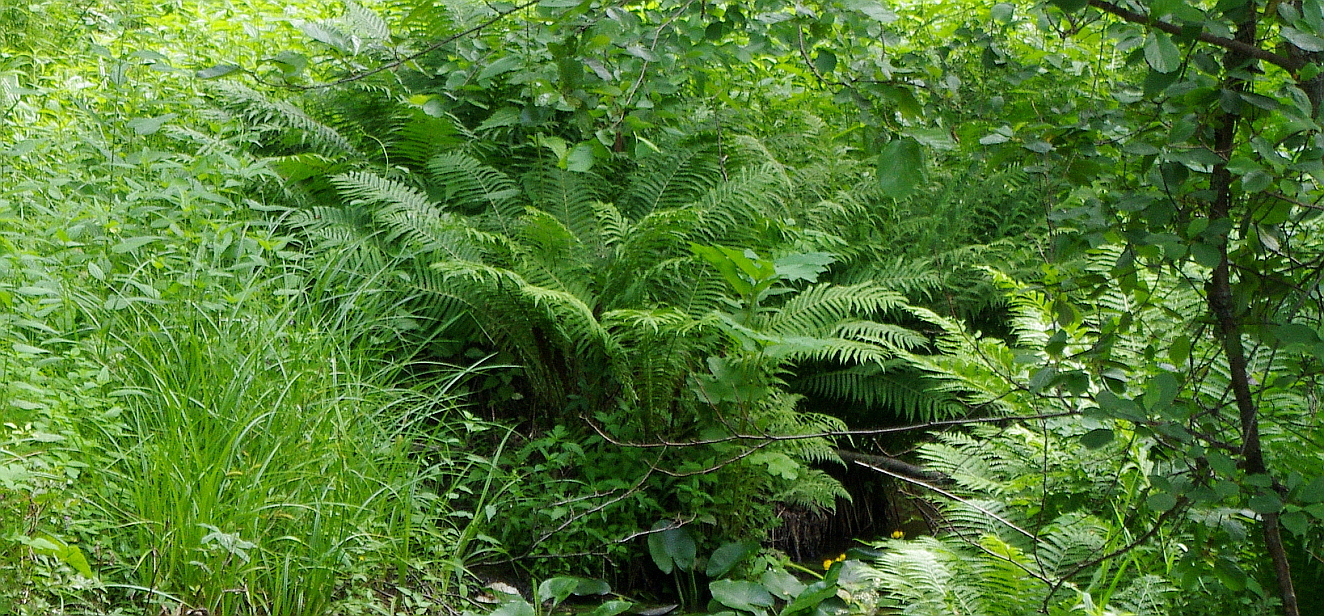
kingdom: Plantae
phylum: Tracheophyta
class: Polypodiopsida
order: Polypodiales
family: Onocleaceae
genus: Matteuccia
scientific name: Matteuccia struthiopteris
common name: Ostrich fern
